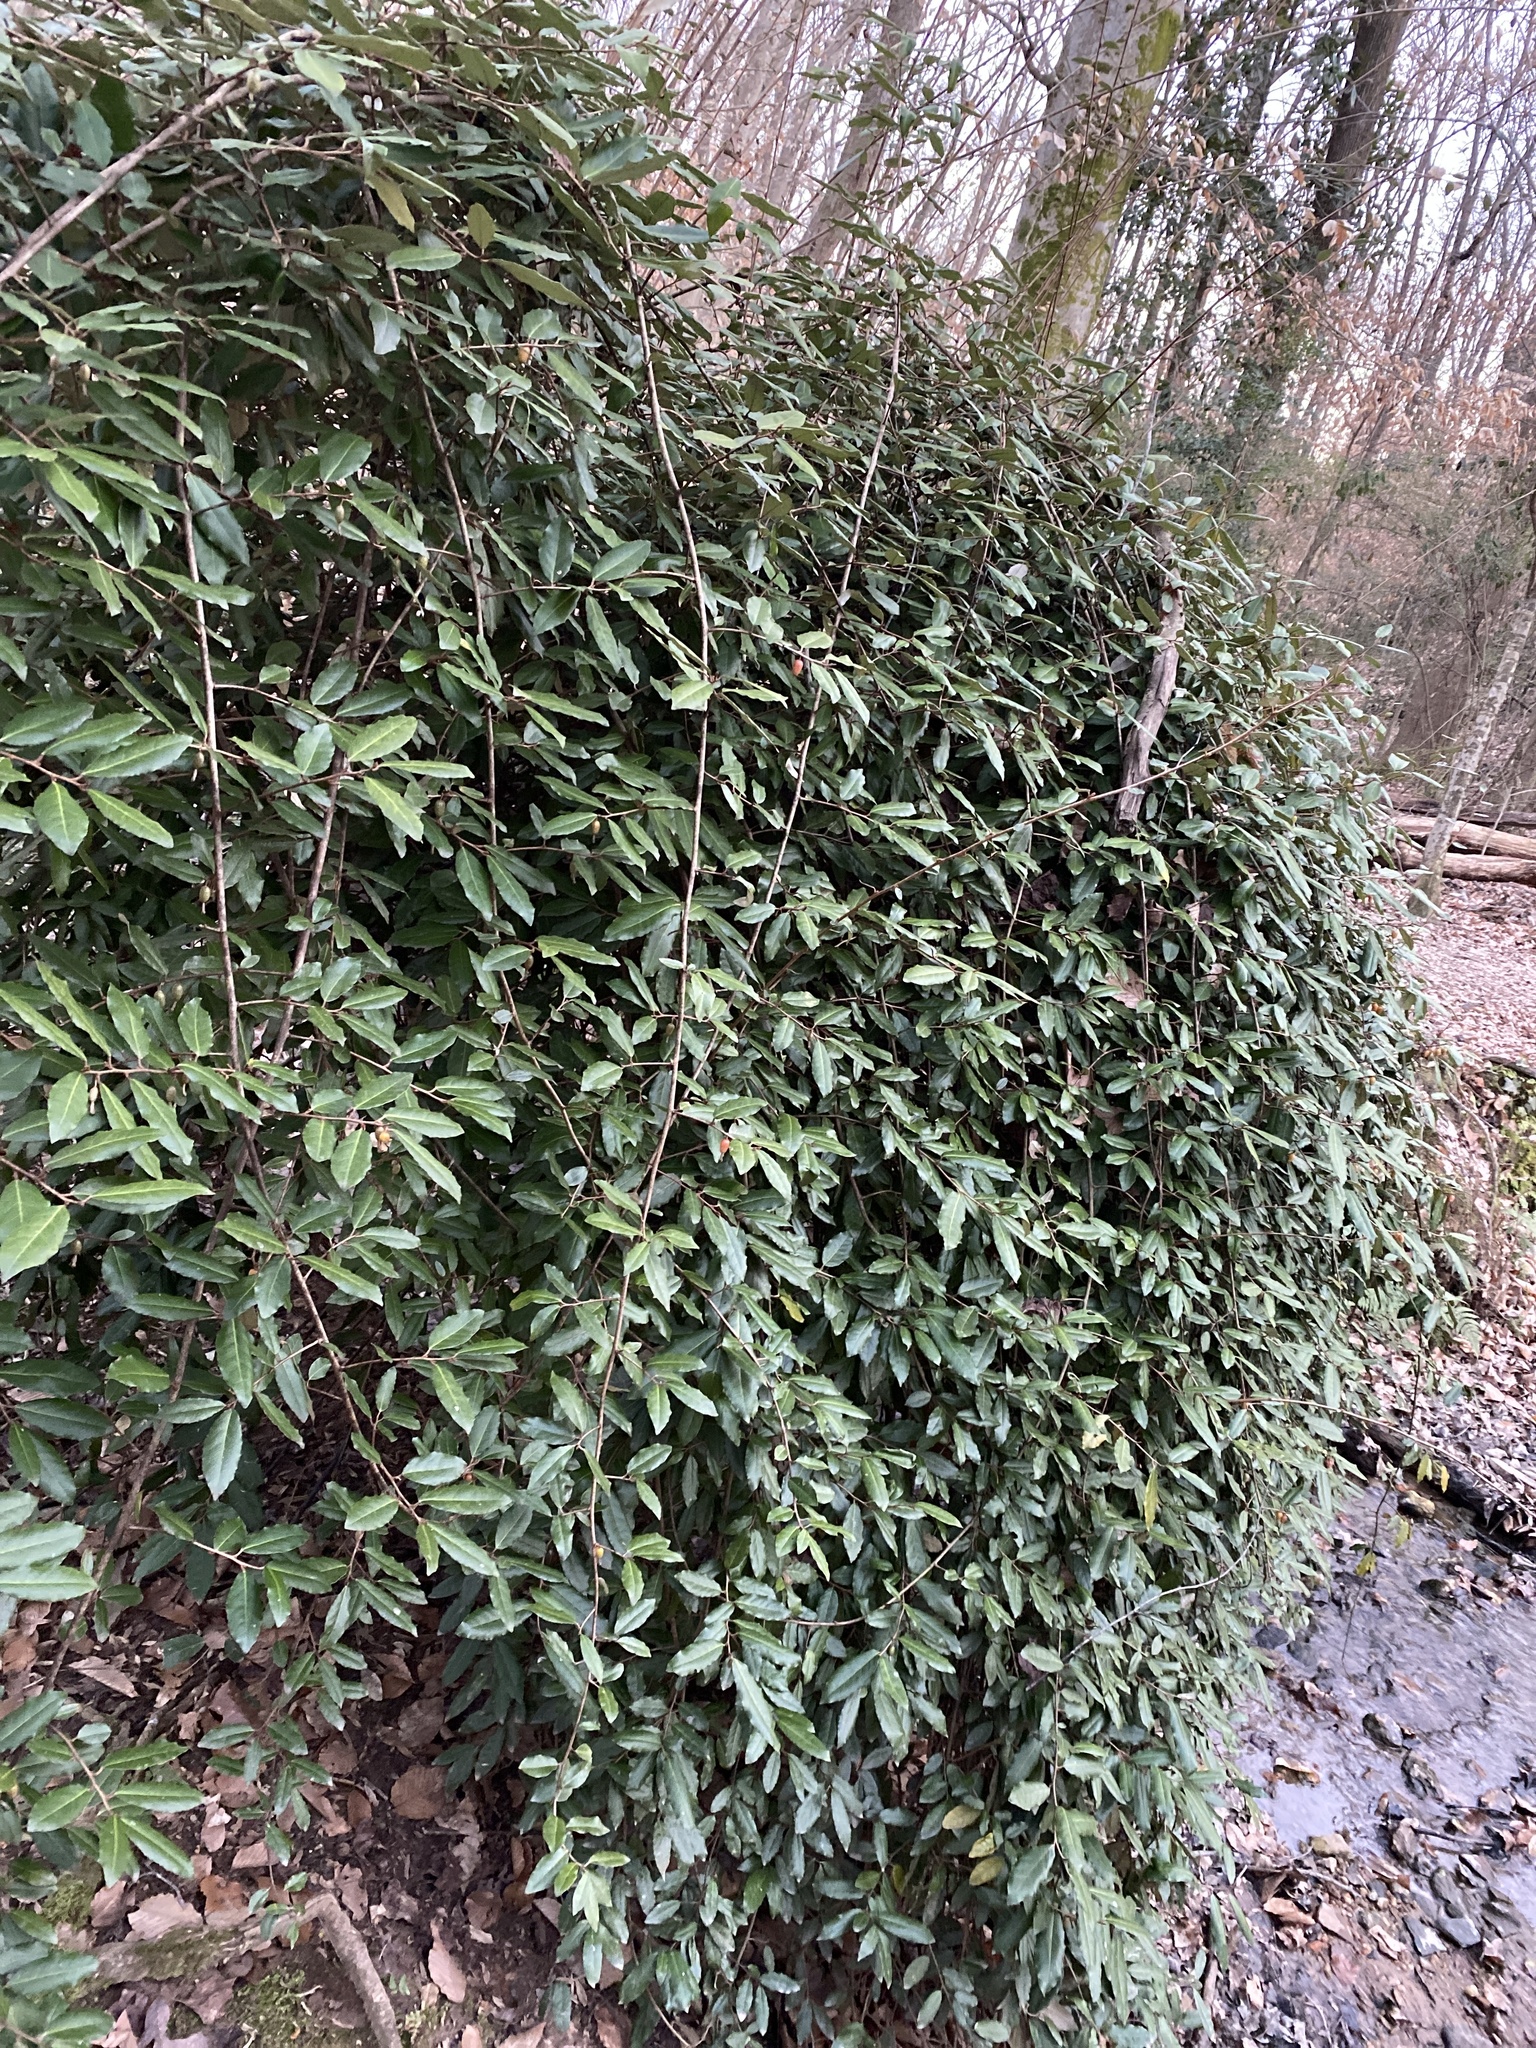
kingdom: Plantae
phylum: Tracheophyta
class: Magnoliopsida
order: Rosales
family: Elaeagnaceae
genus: Elaeagnus
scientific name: Elaeagnus pungens
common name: Spiny oleaster
